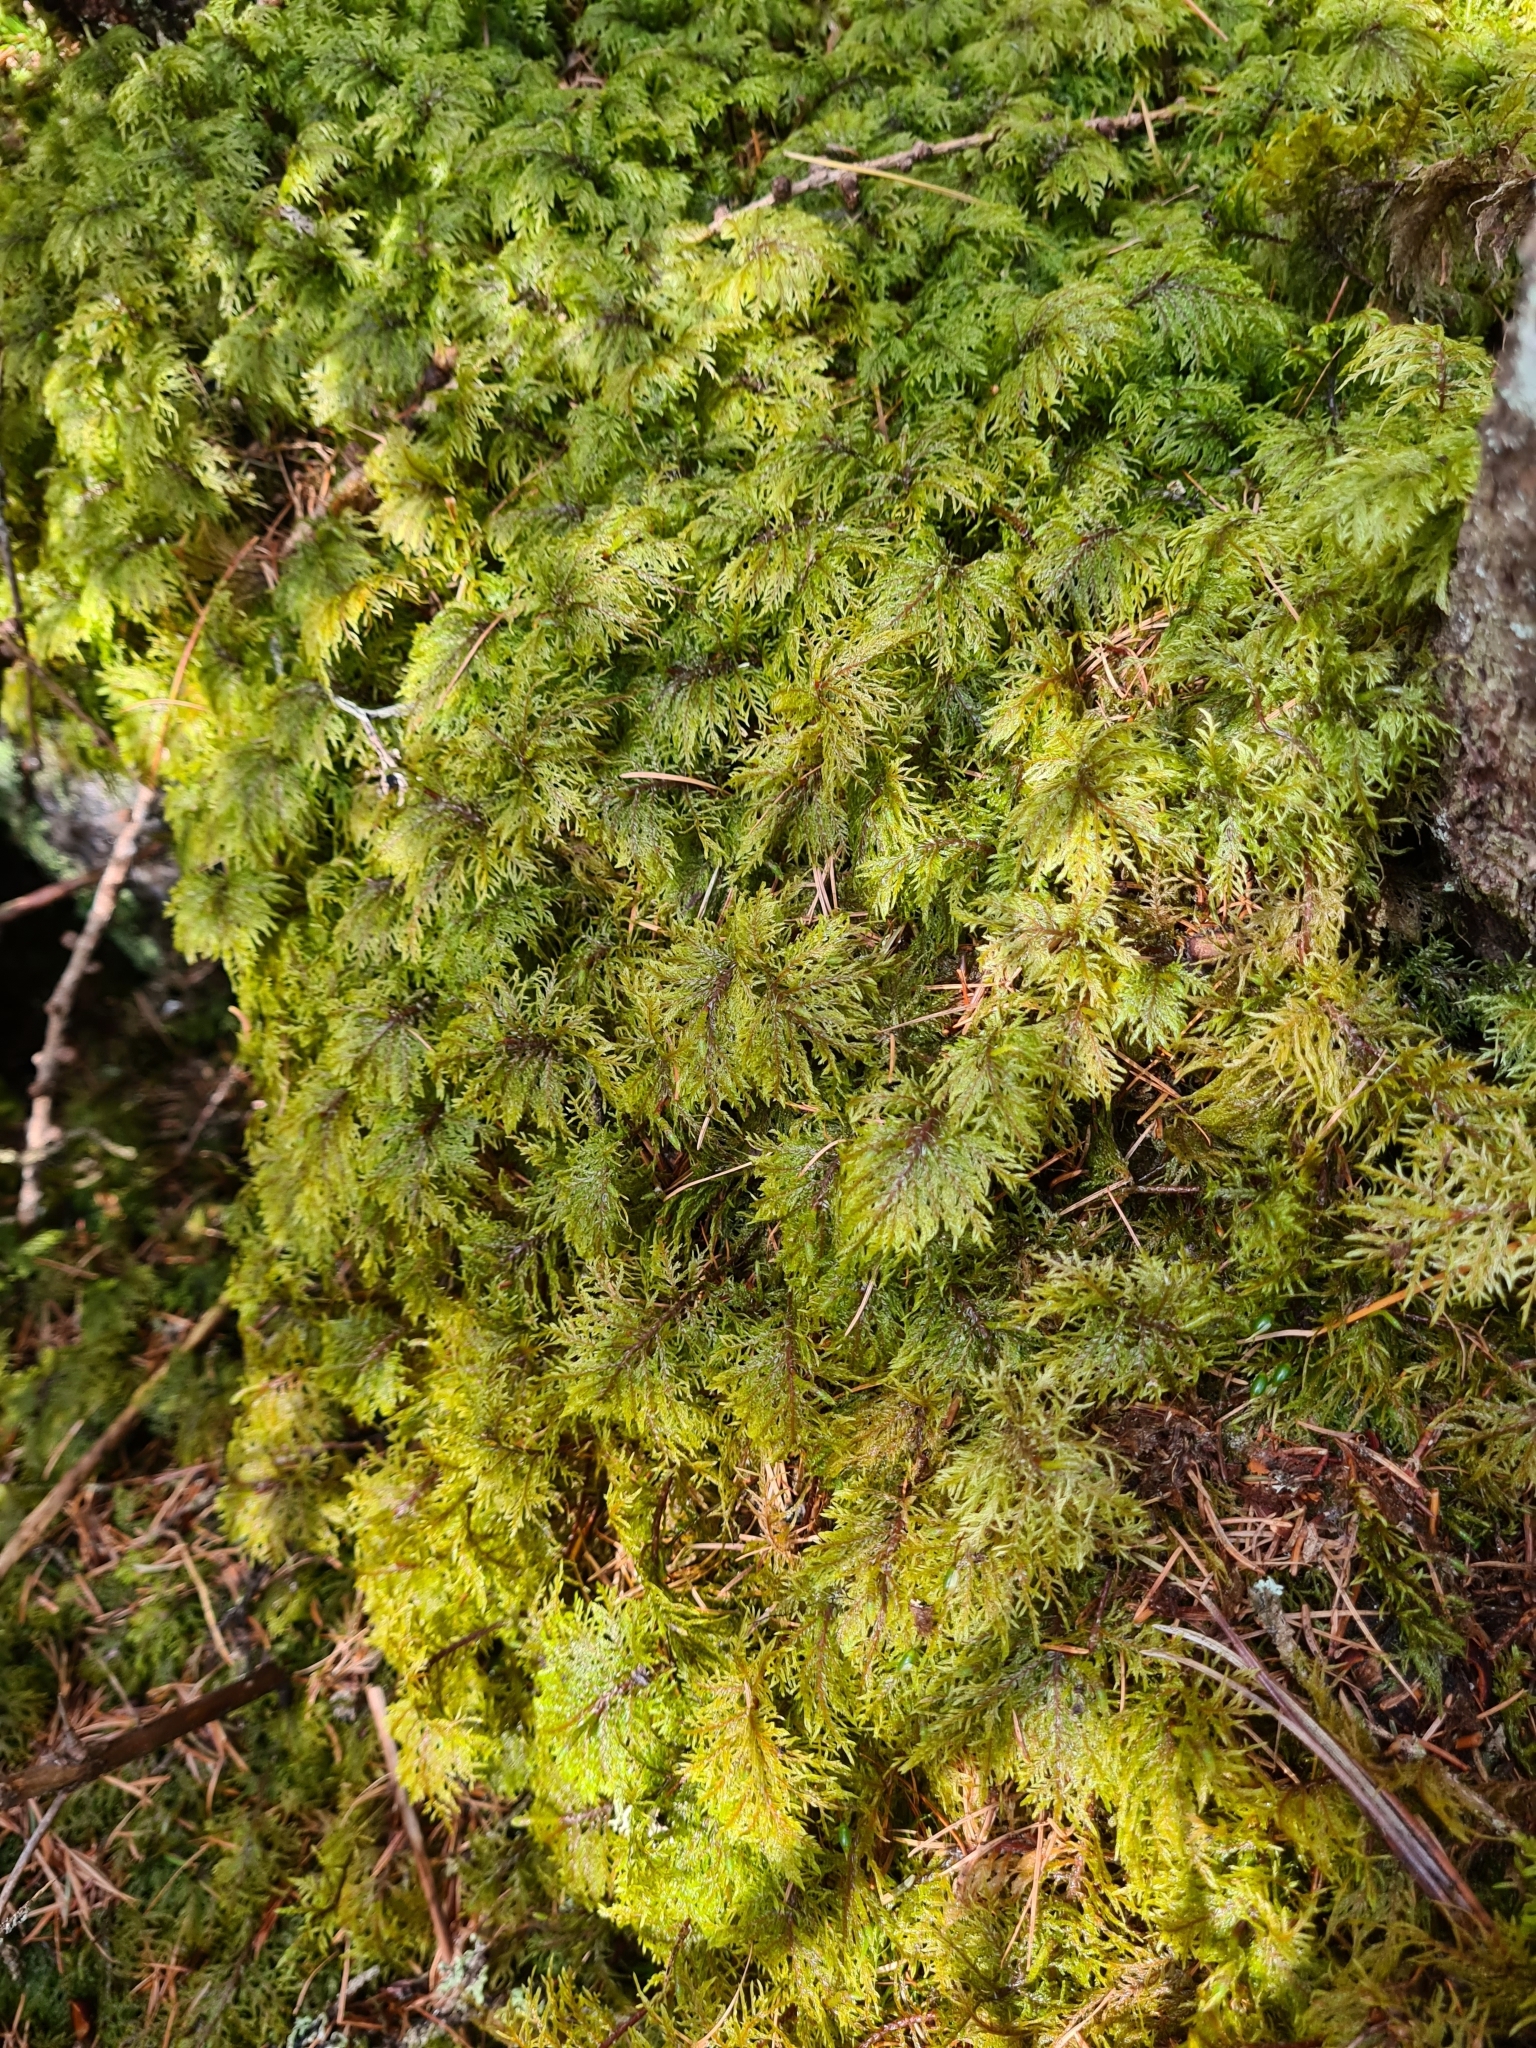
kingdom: Plantae
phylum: Bryophyta
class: Bryopsida
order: Hypnales
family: Hylocomiaceae
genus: Hylocomium
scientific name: Hylocomium splendens
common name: Stairstep moss
